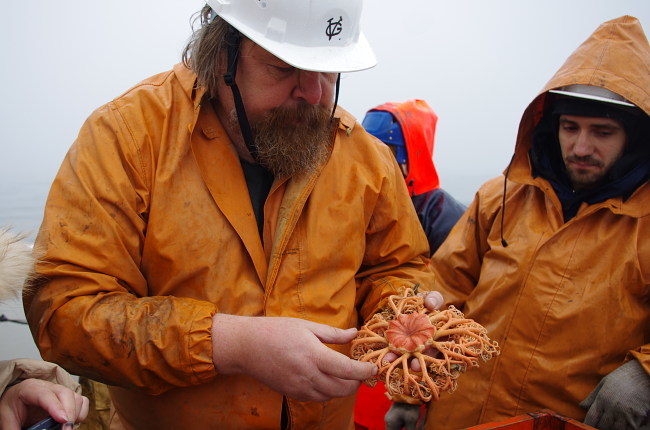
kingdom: Animalia
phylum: Echinodermata
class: Ophiuroidea
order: Euryalida
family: Gorgonocephalidae
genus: Gorgonocephalus
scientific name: Gorgonocephalus arcticus
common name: Northern basket star
